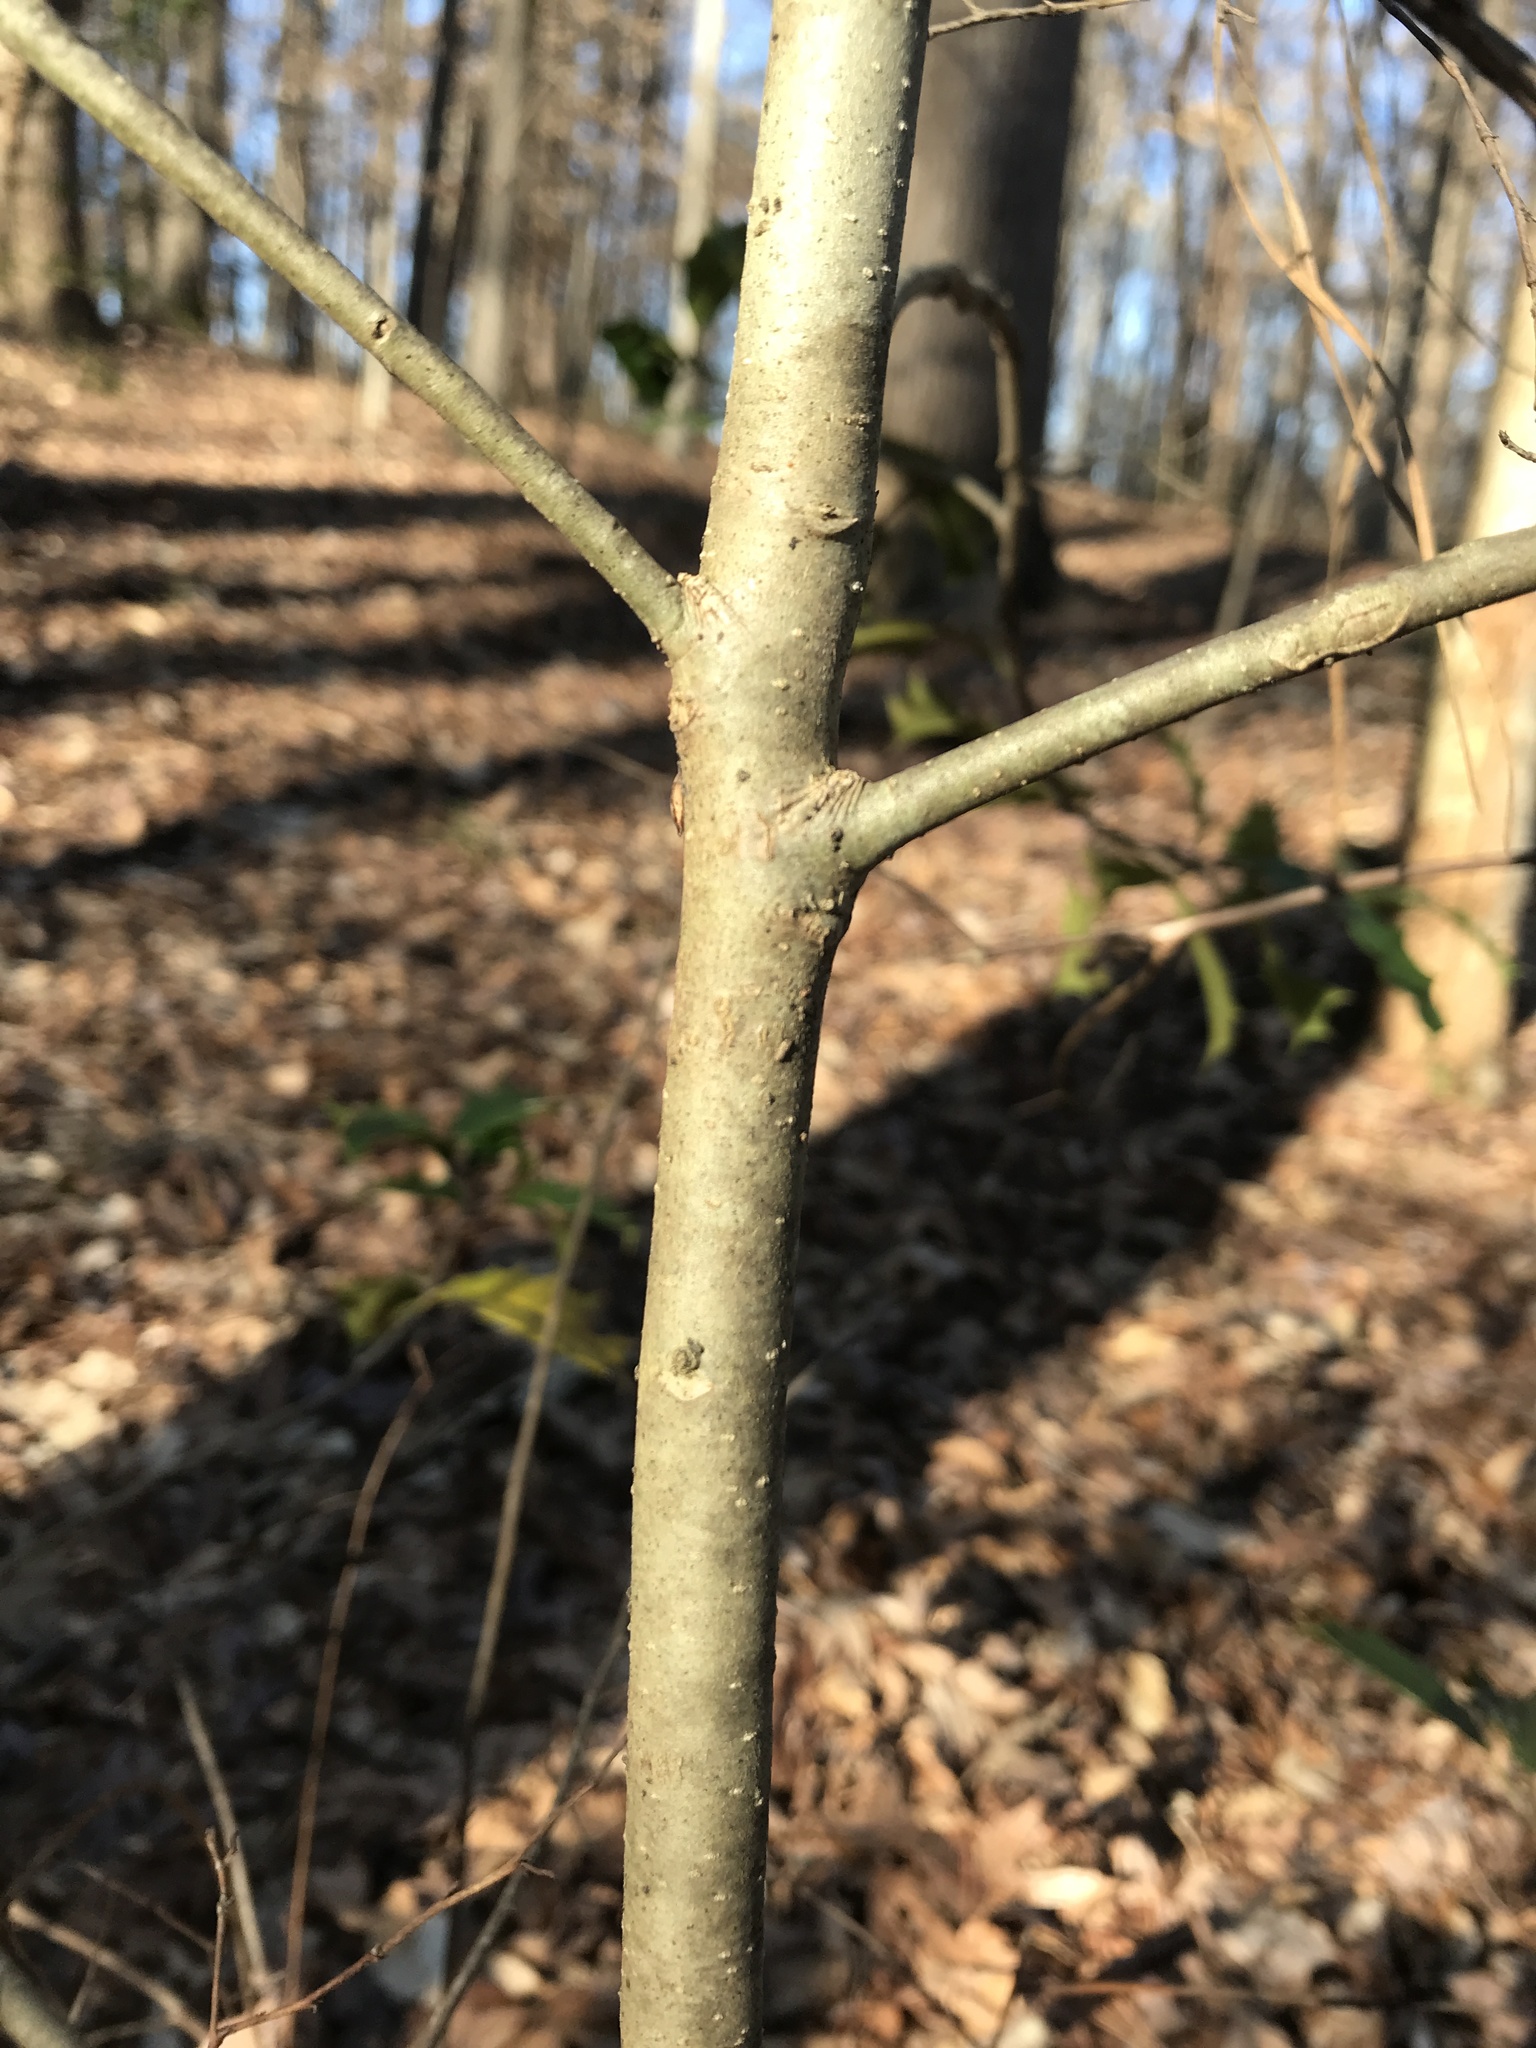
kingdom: Plantae
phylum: Tracheophyta
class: Magnoliopsida
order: Aquifoliales
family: Aquifoliaceae
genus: Ilex
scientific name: Ilex opaca
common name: American holly
